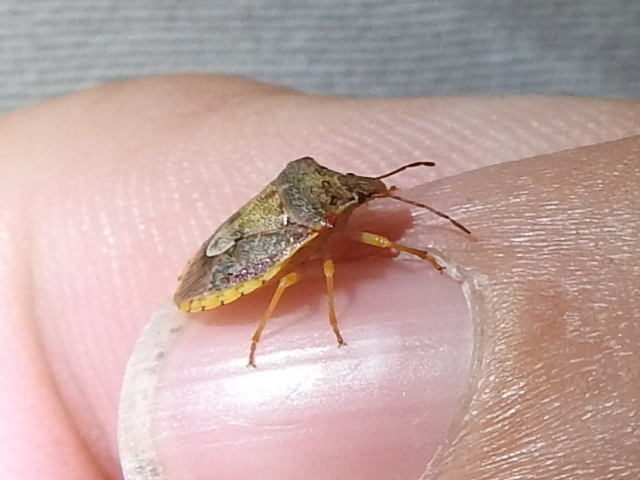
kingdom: Animalia
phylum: Arthropoda
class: Insecta
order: Hemiptera
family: Pentatomidae
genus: Dendrocoris
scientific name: Dendrocoris humeralis
